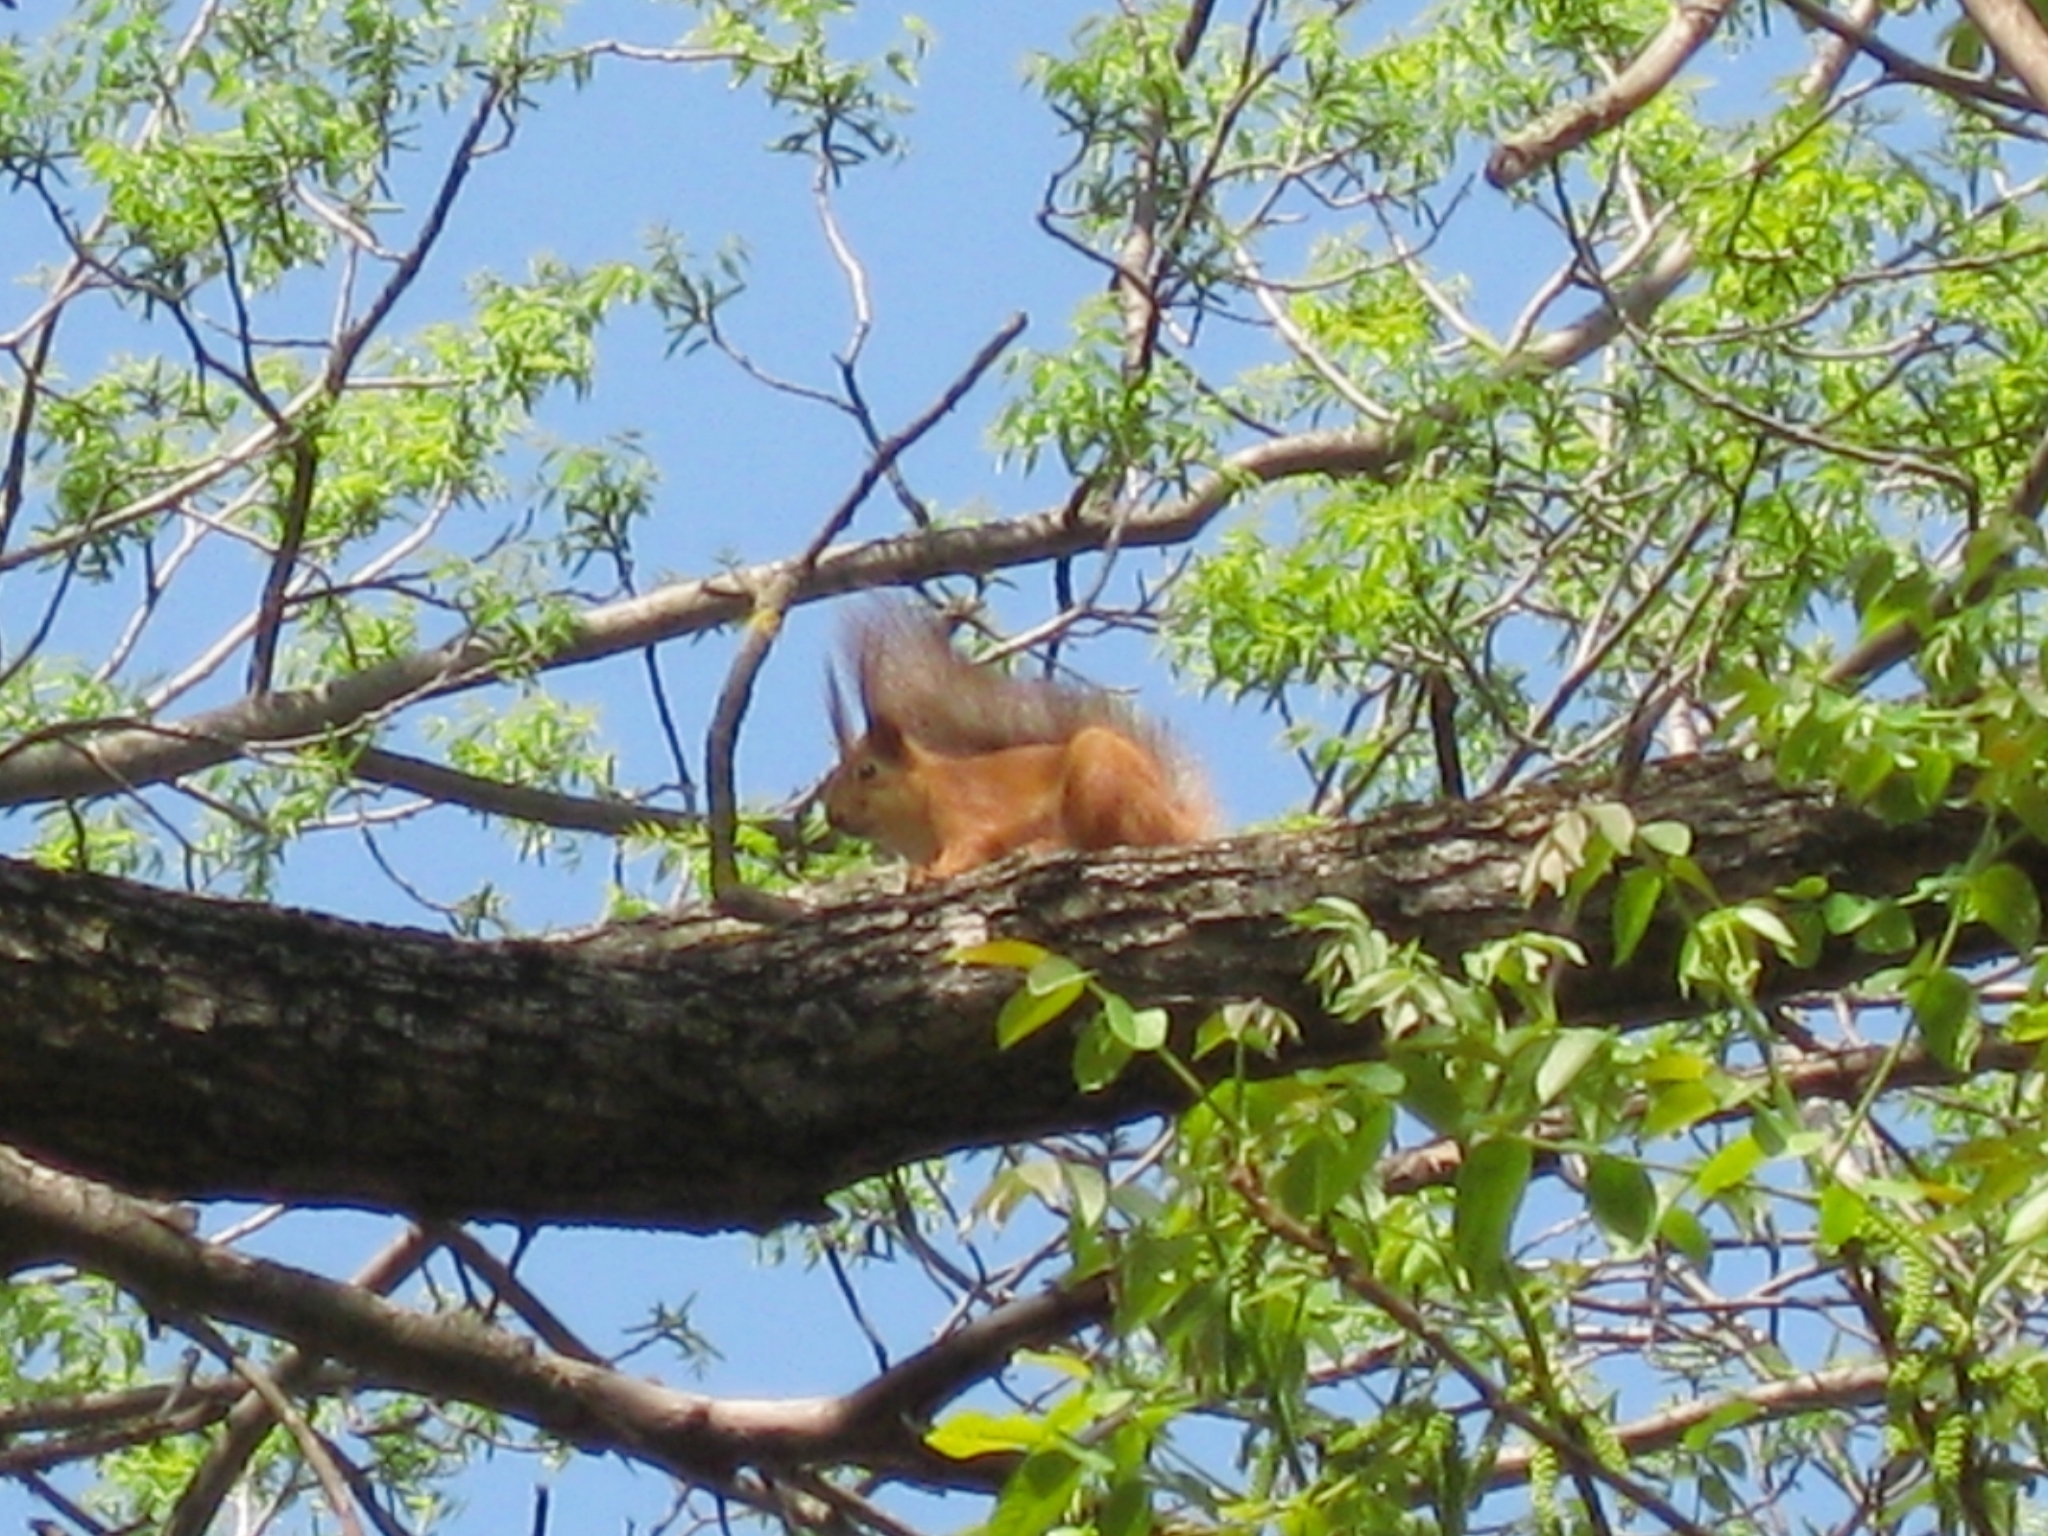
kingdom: Animalia
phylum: Chordata
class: Mammalia
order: Rodentia
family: Sciuridae
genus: Sciurus
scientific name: Sciurus vulgaris
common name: Eurasian red squirrel
